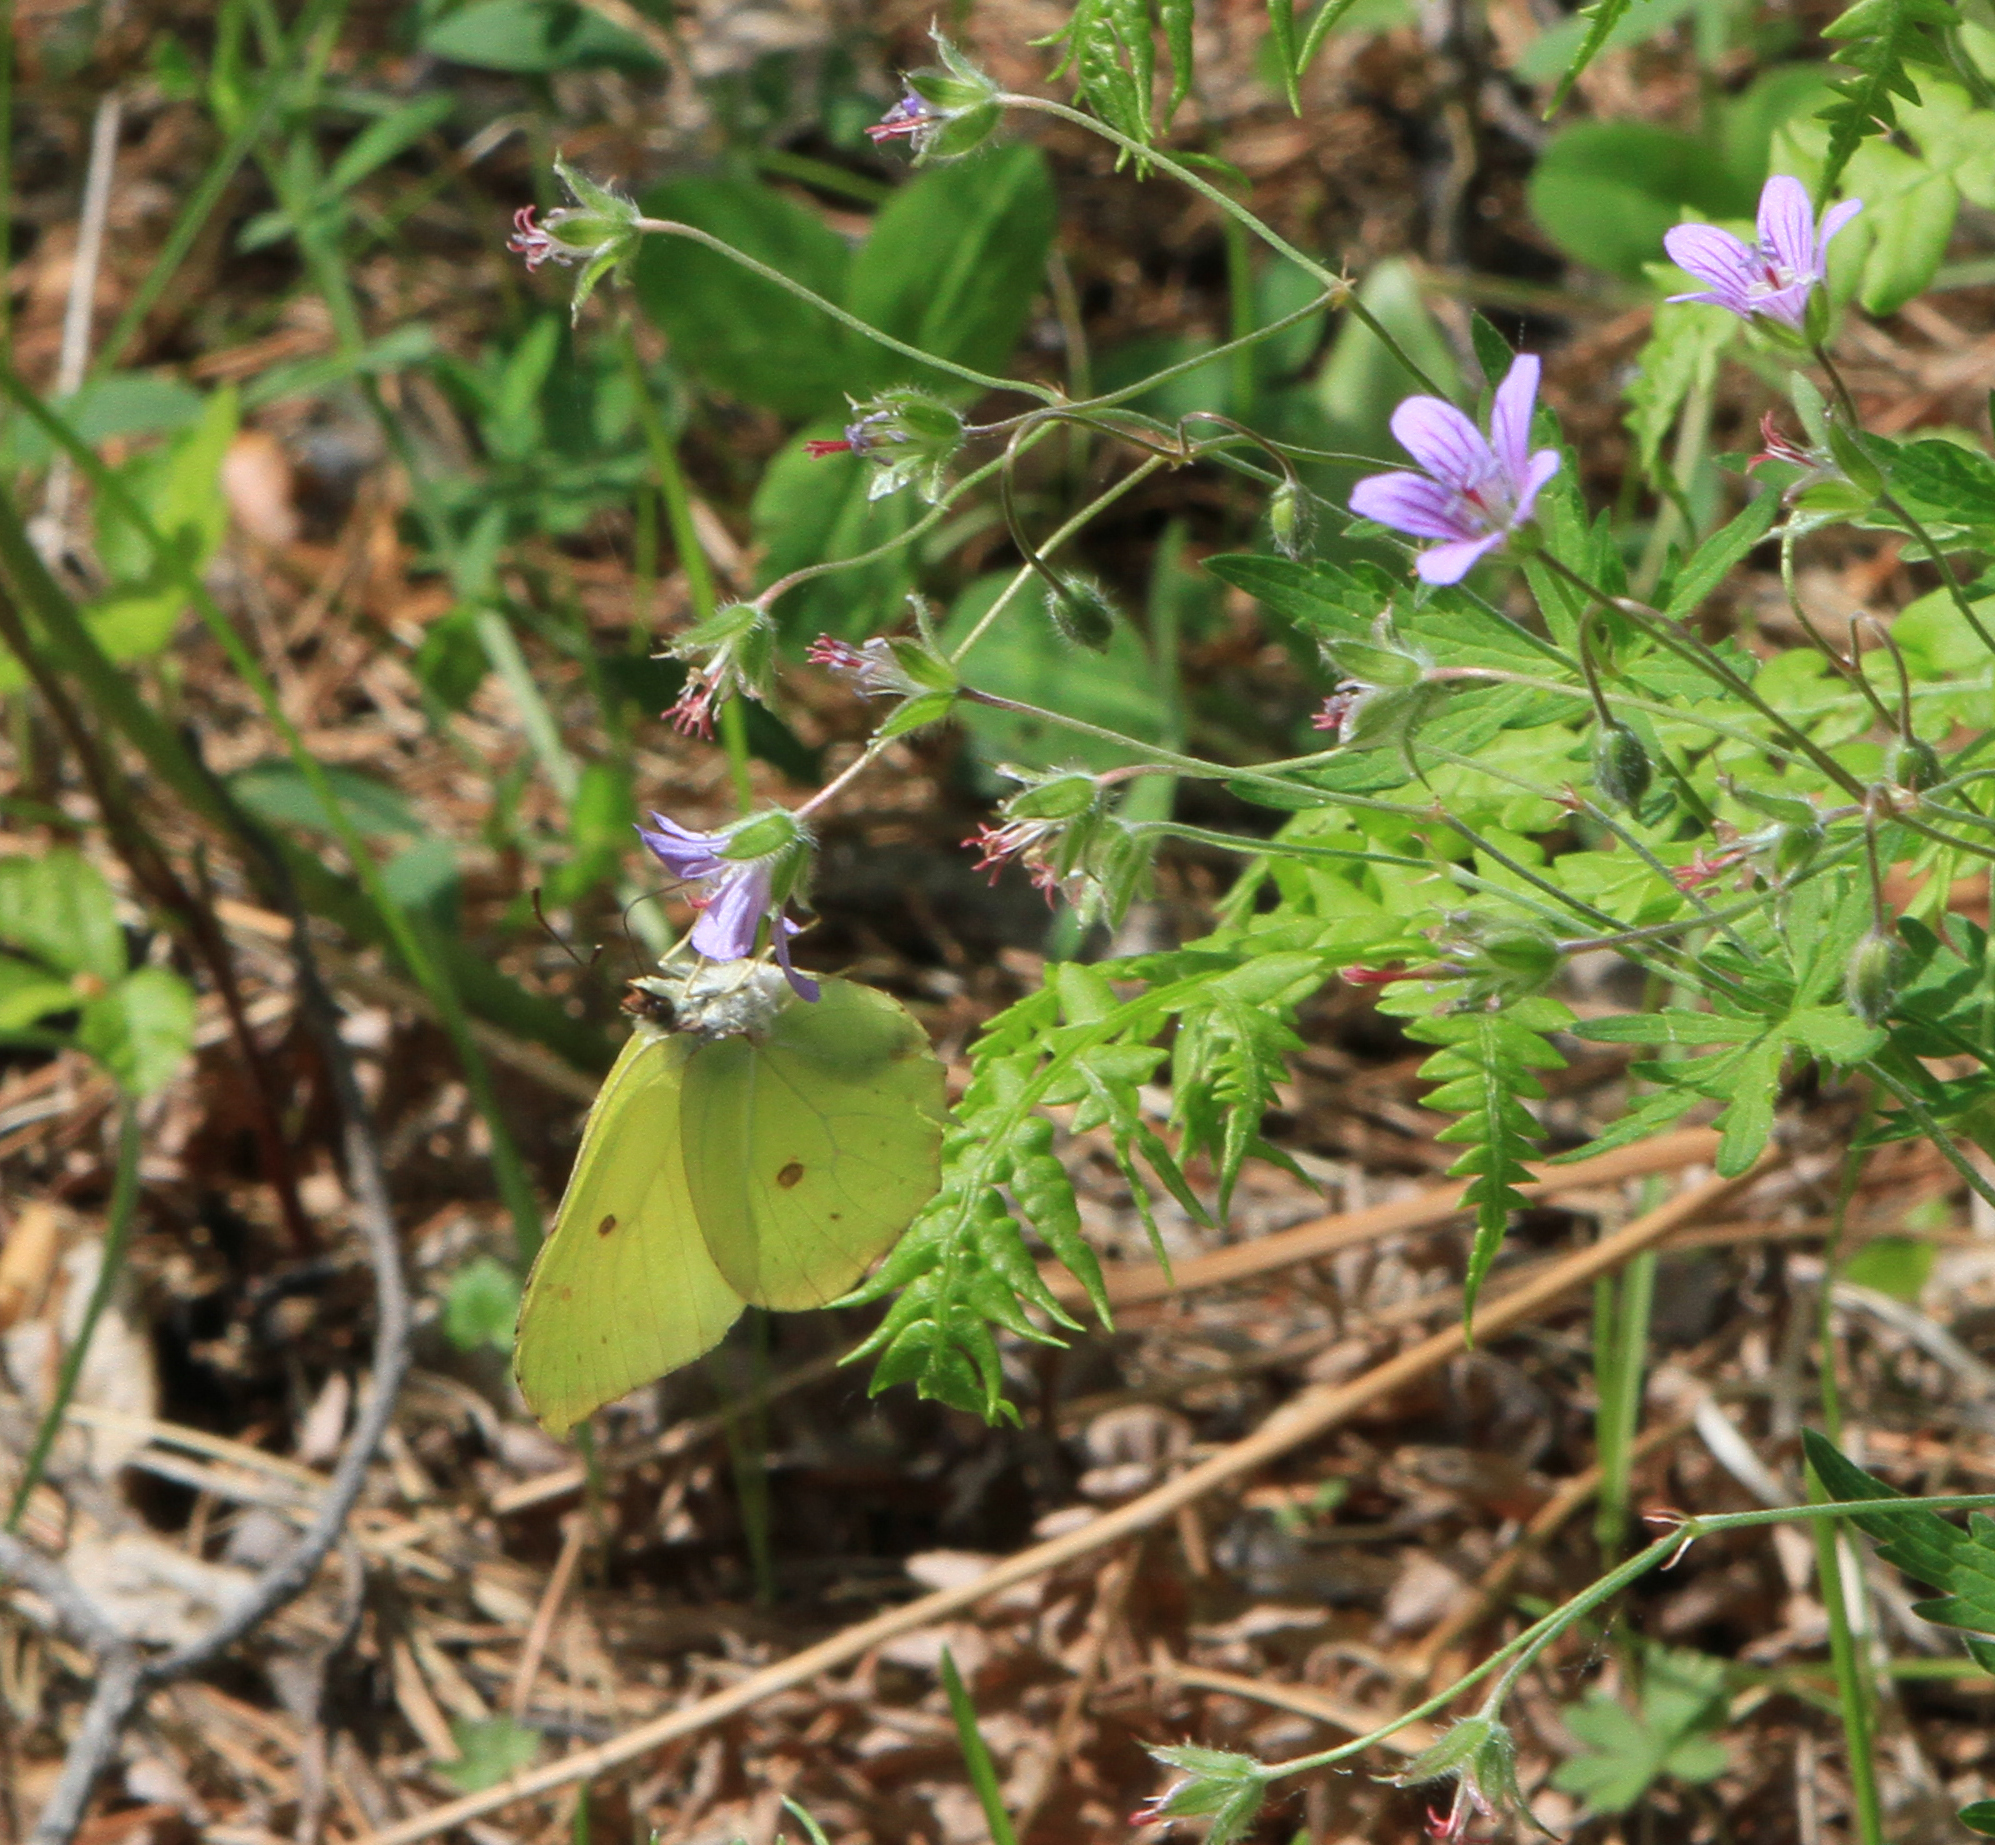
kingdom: Animalia
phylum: Arthropoda
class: Insecta
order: Lepidoptera
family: Pieridae
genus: Gonepteryx
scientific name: Gonepteryx rhamni
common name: Brimstone
